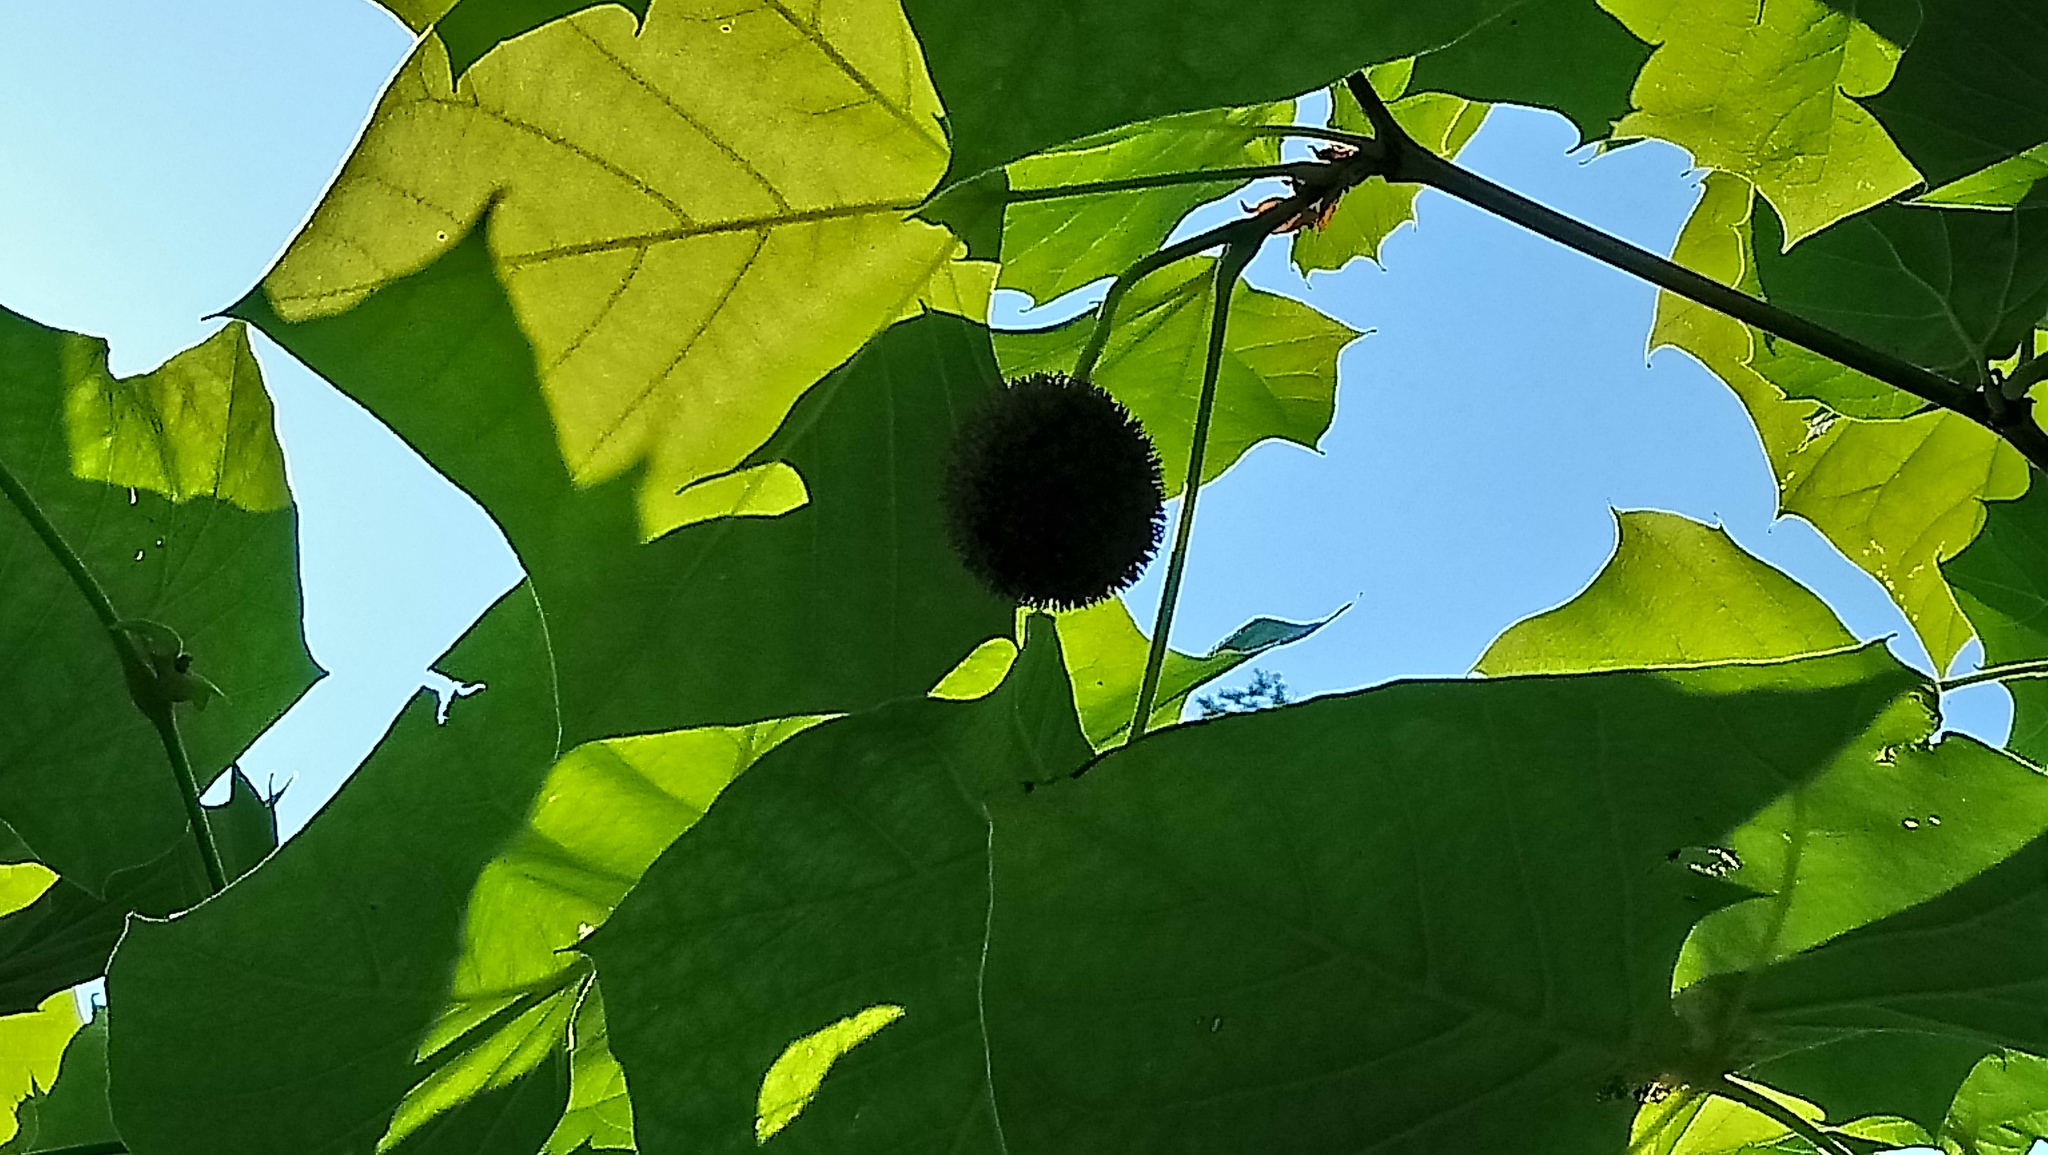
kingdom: Plantae
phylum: Tracheophyta
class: Magnoliopsida
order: Proteales
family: Platanaceae
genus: Platanus
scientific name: Platanus occidentalis
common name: American sycamore
